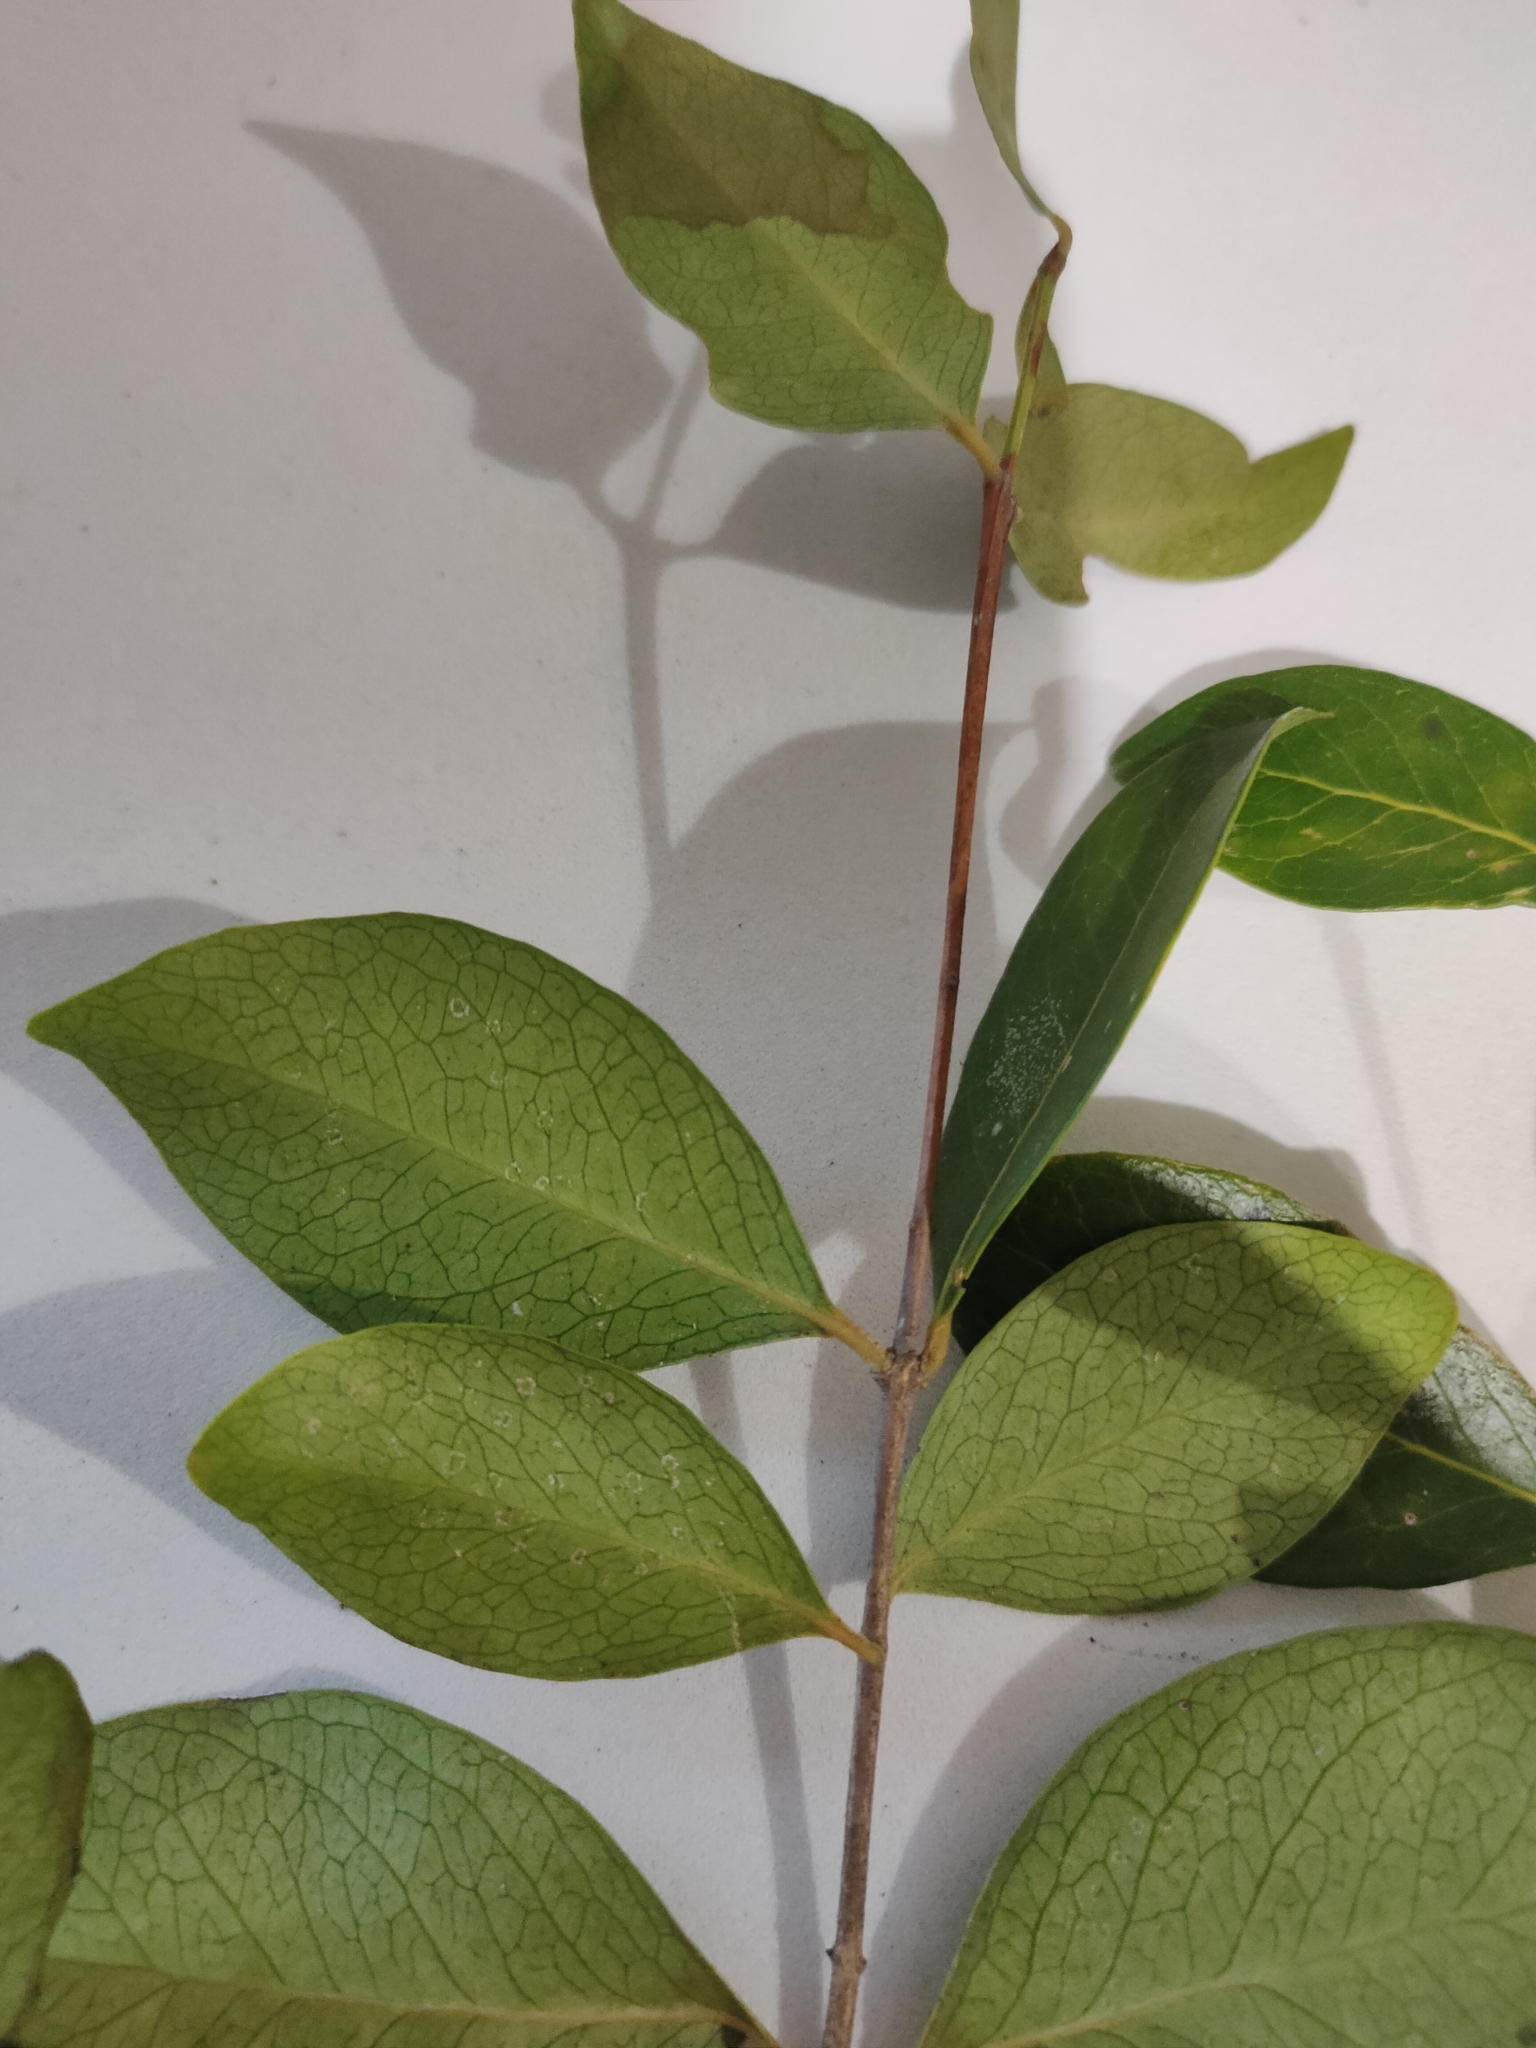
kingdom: Plantae
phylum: Tracheophyta
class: Magnoliopsida
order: Celastrales
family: Celastraceae
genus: Pleurostylia
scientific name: Pleurostylia opposita
